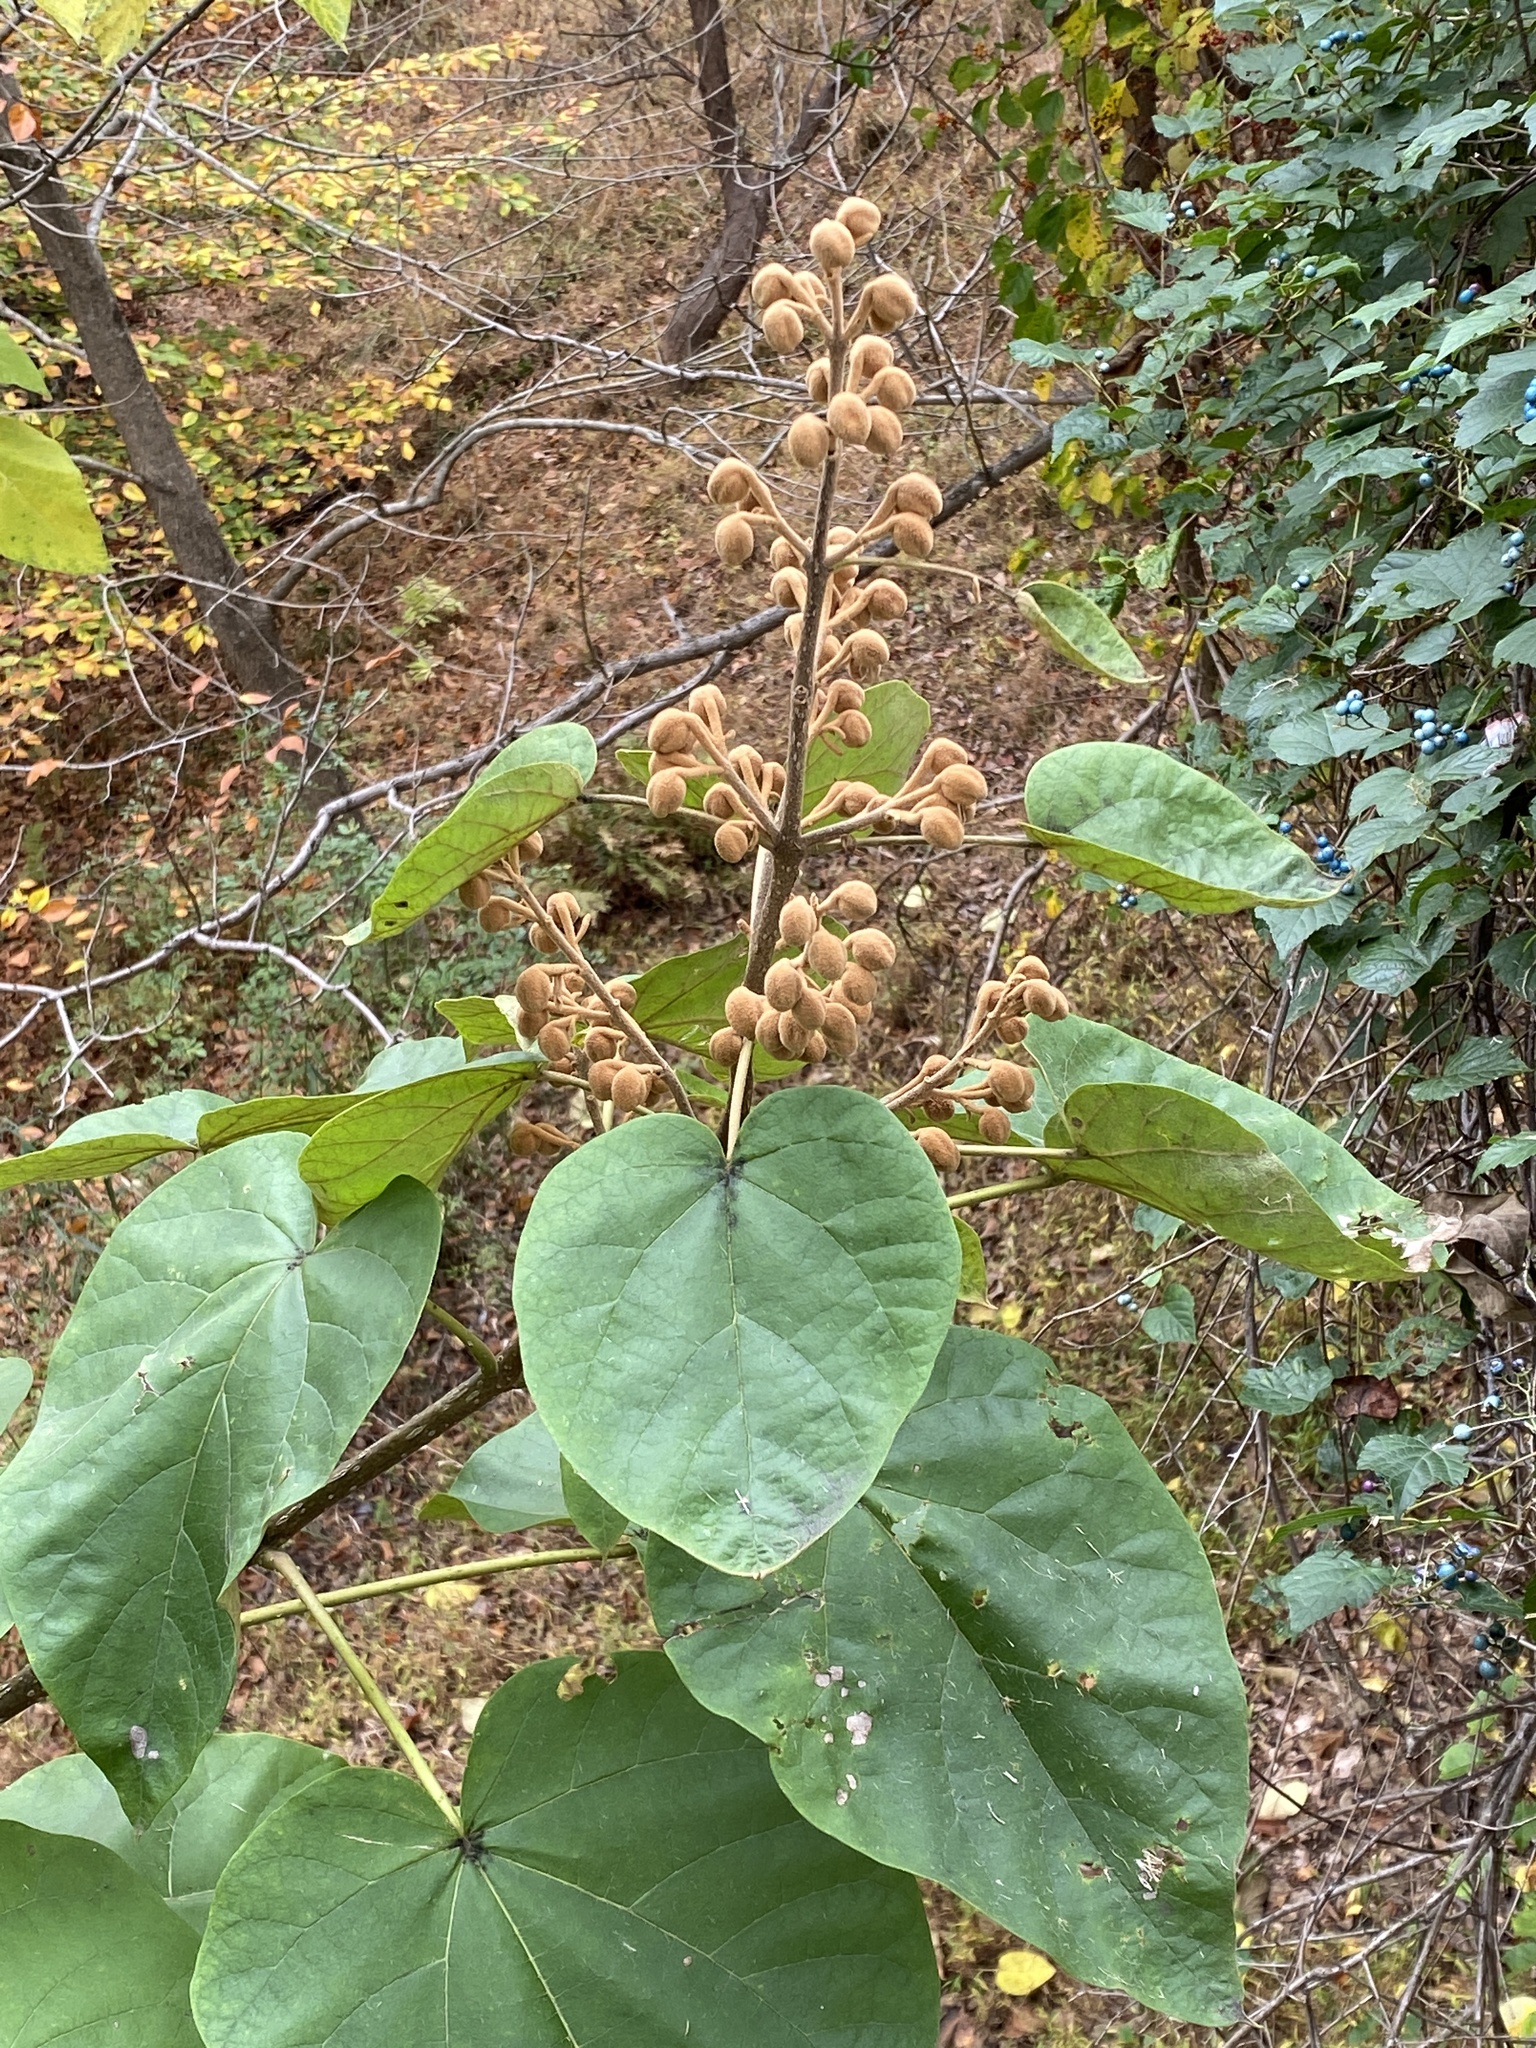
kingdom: Plantae
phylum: Tracheophyta
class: Magnoliopsida
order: Lamiales
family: Paulowniaceae
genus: Paulownia
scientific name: Paulownia tomentosa
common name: Foxglove-tree
